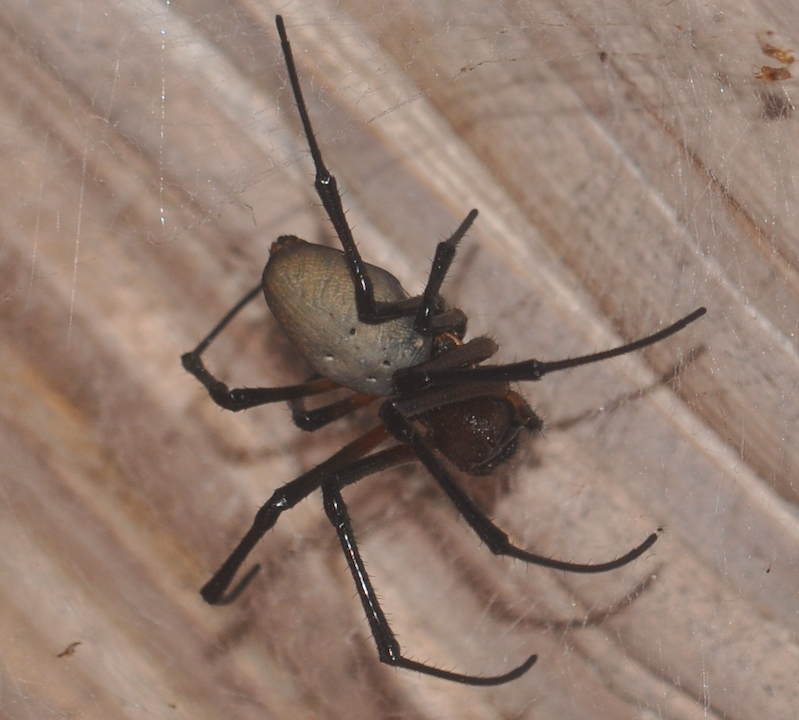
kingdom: Animalia
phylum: Arthropoda
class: Arachnida
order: Araneae
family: Araneidae
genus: Nephilingis
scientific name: Nephilingis livida
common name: Madagascar hermit spider
